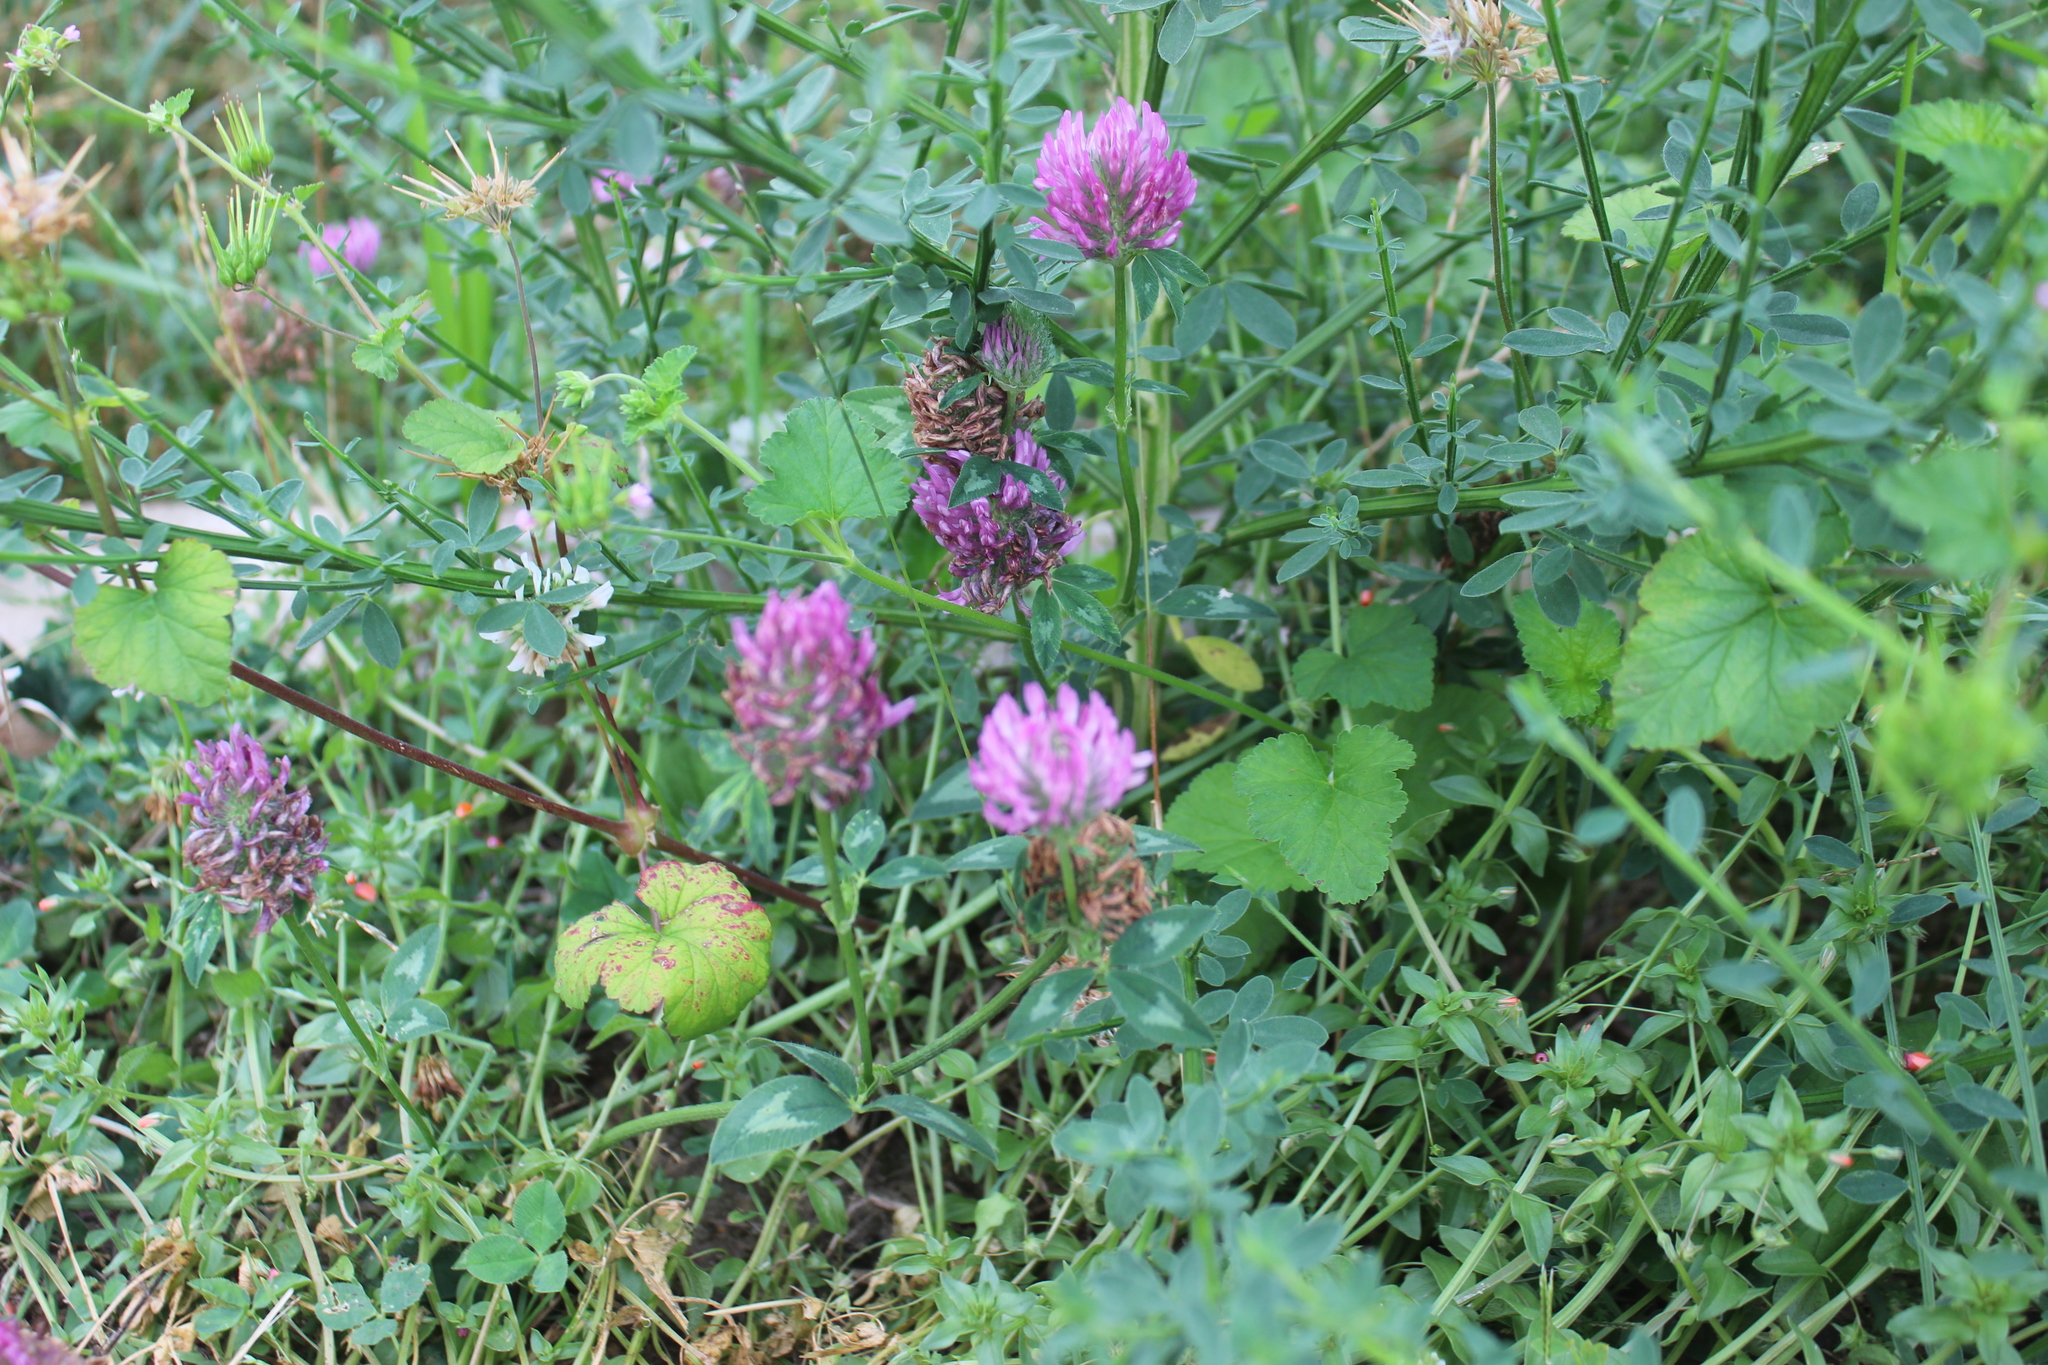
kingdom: Plantae
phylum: Tracheophyta
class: Magnoliopsida
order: Fabales
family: Fabaceae
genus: Trifolium
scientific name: Trifolium pratense
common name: Red clover
